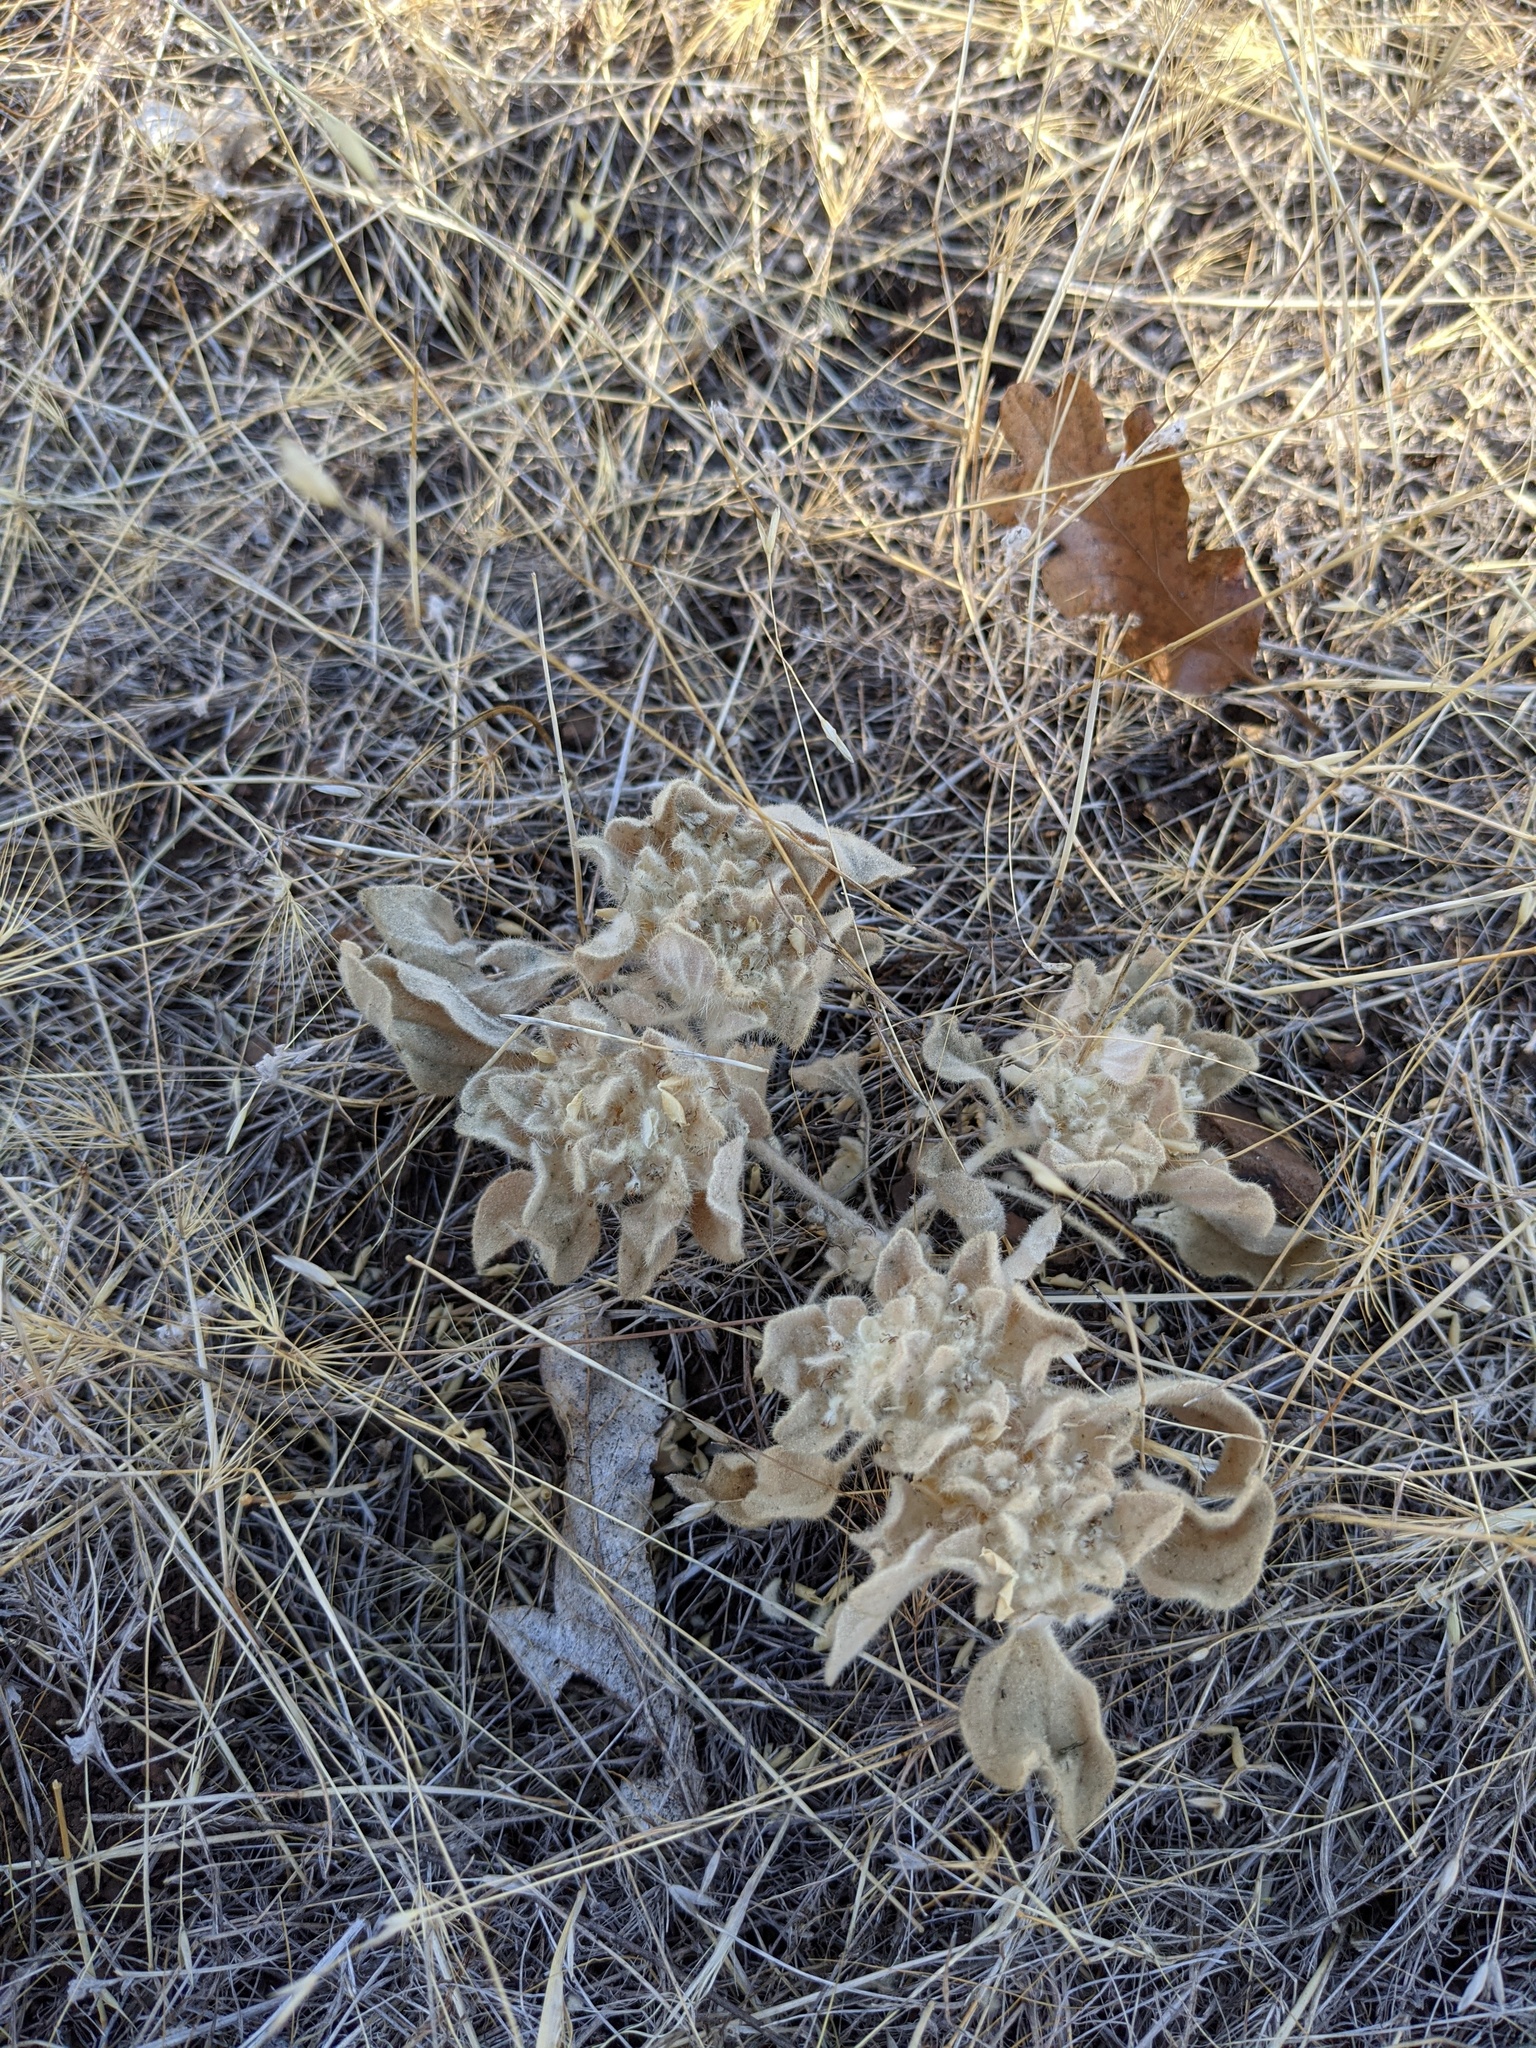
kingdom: Plantae
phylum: Tracheophyta
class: Magnoliopsida
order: Malpighiales
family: Euphorbiaceae
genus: Croton
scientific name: Croton setiger
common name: Dove weed
